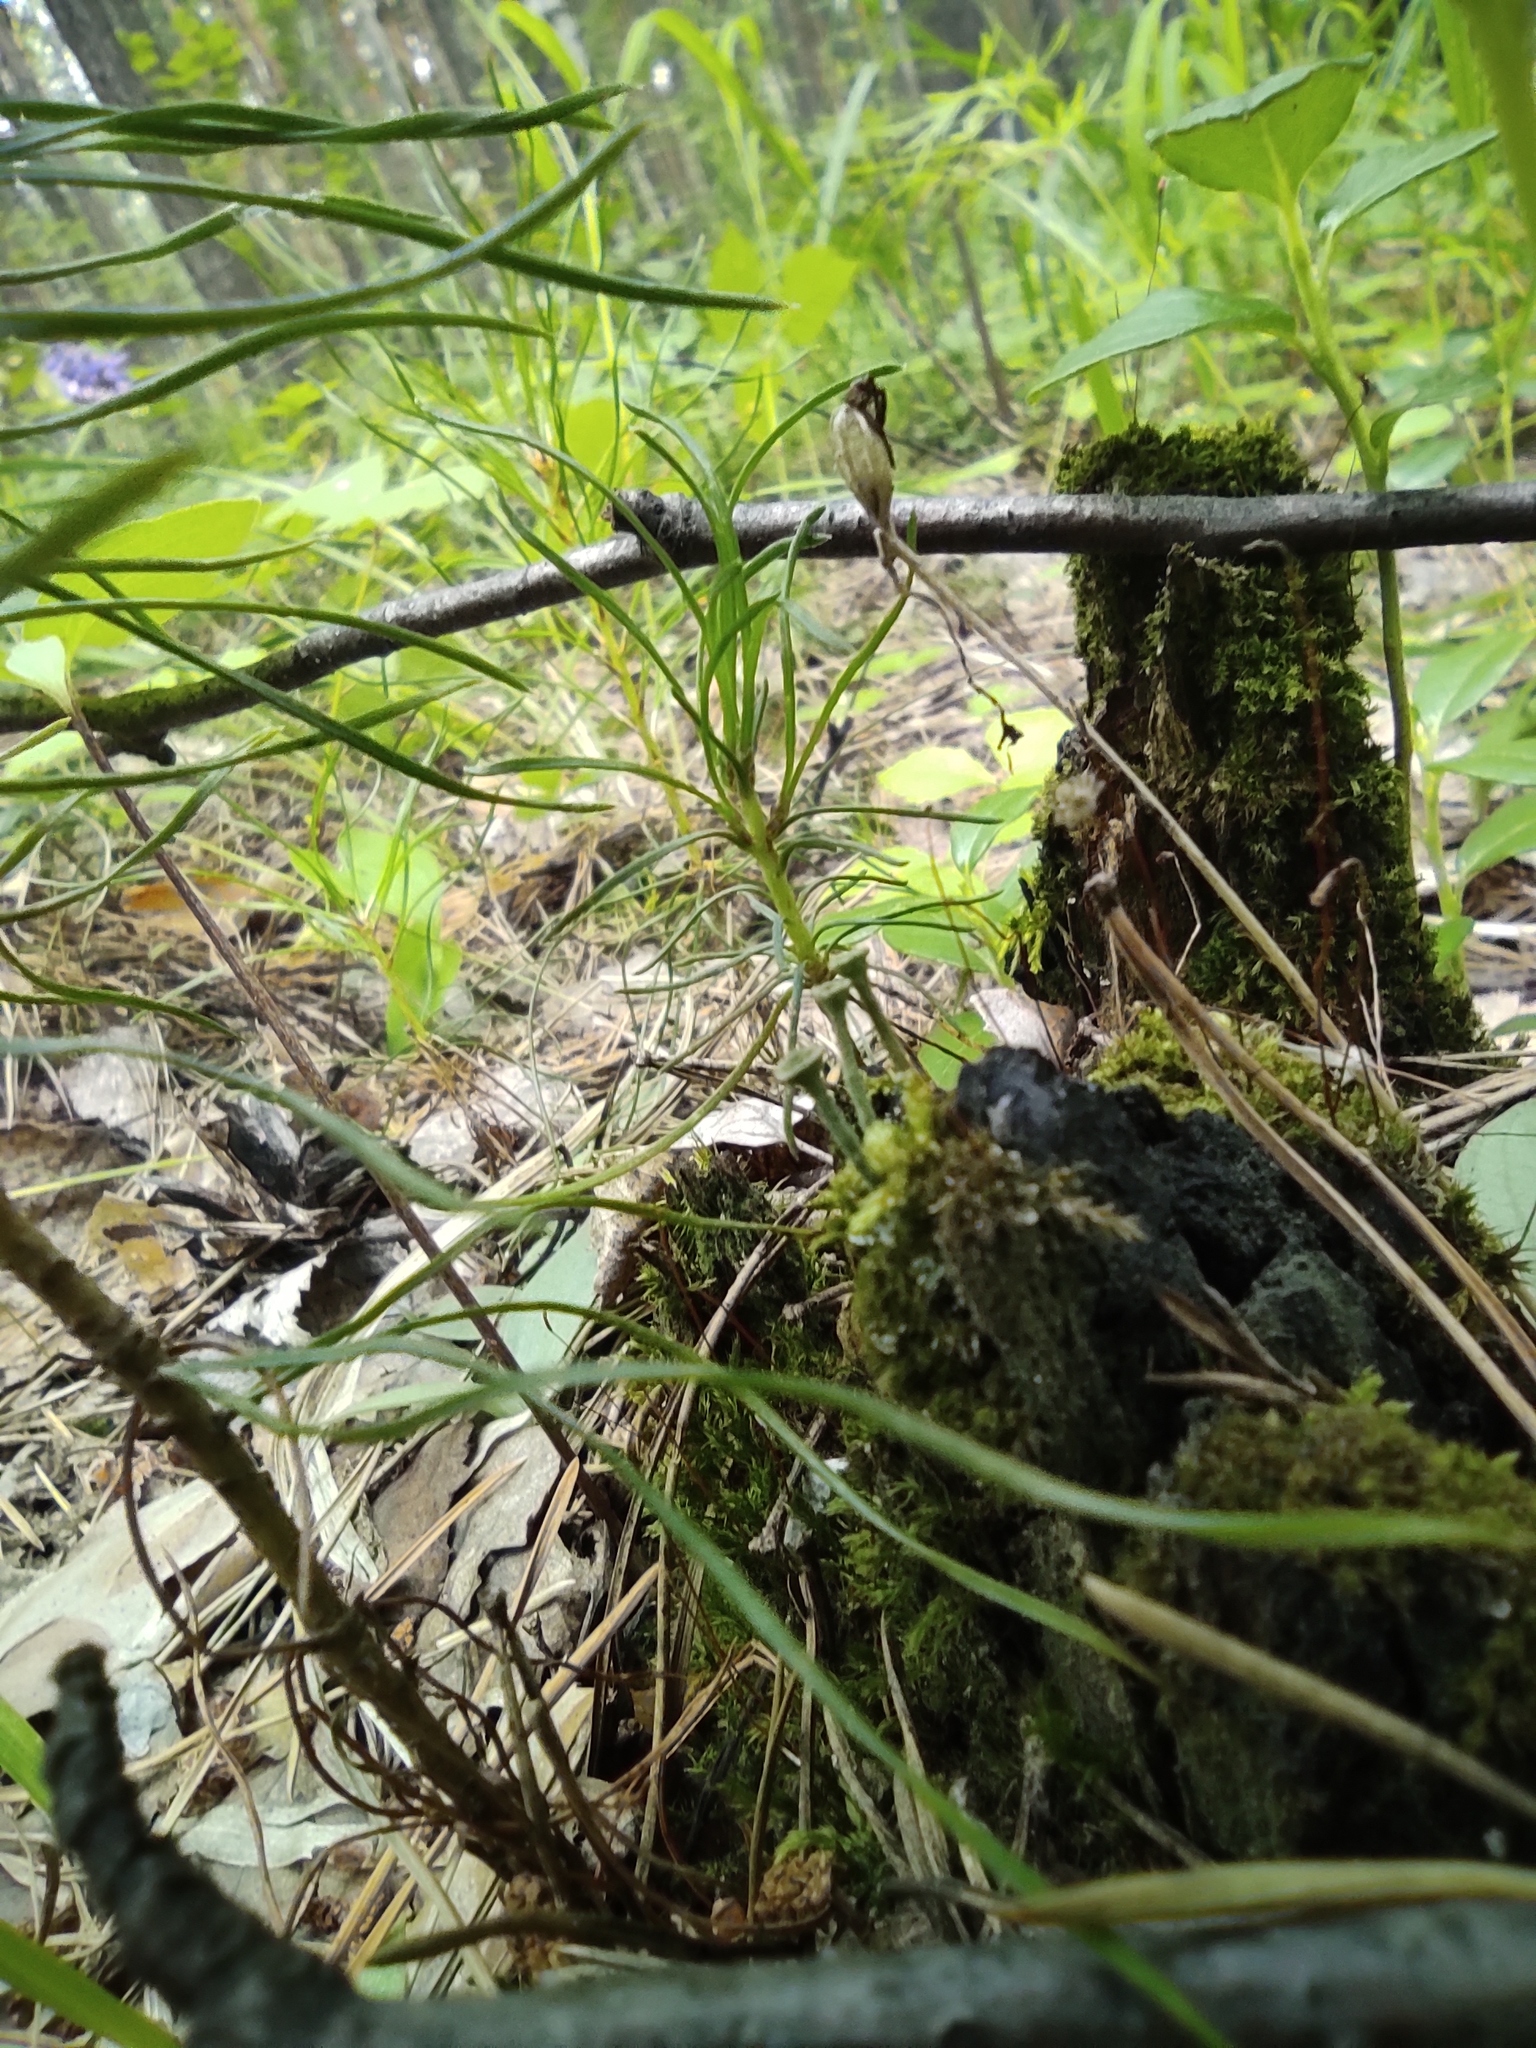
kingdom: Plantae
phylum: Tracheophyta
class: Pinopsida
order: Pinales
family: Pinaceae
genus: Pinus
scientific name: Pinus sylvestris
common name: Scots pine
